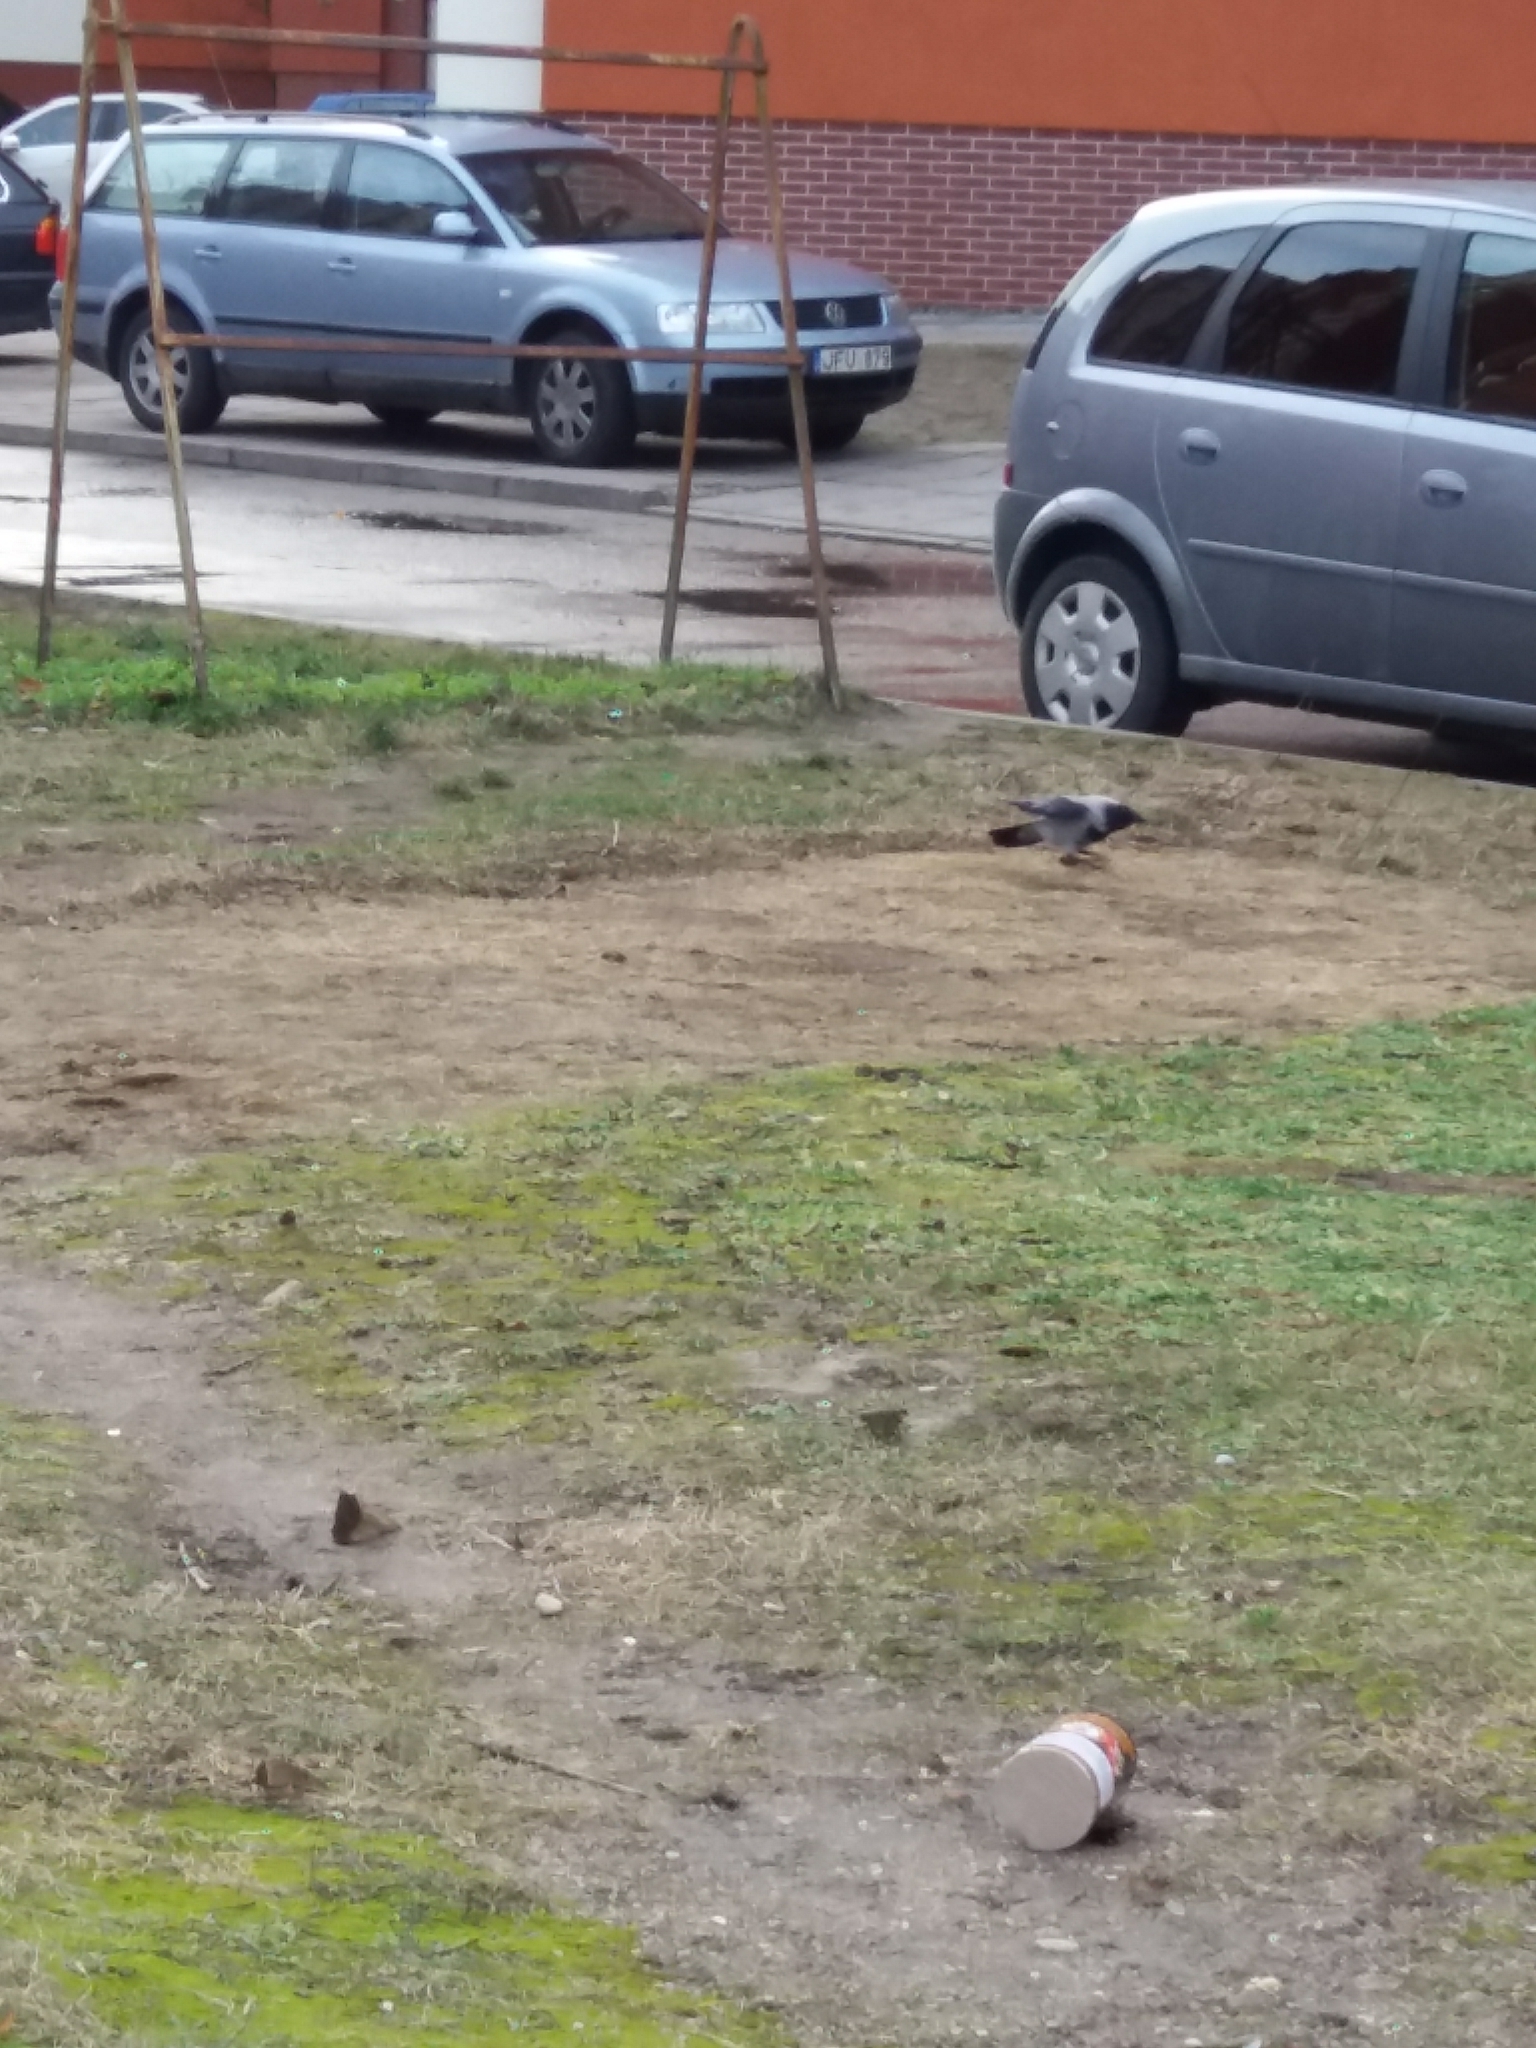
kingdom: Animalia
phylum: Chordata
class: Aves
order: Passeriformes
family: Corvidae
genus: Corvus
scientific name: Corvus cornix
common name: Hooded crow
